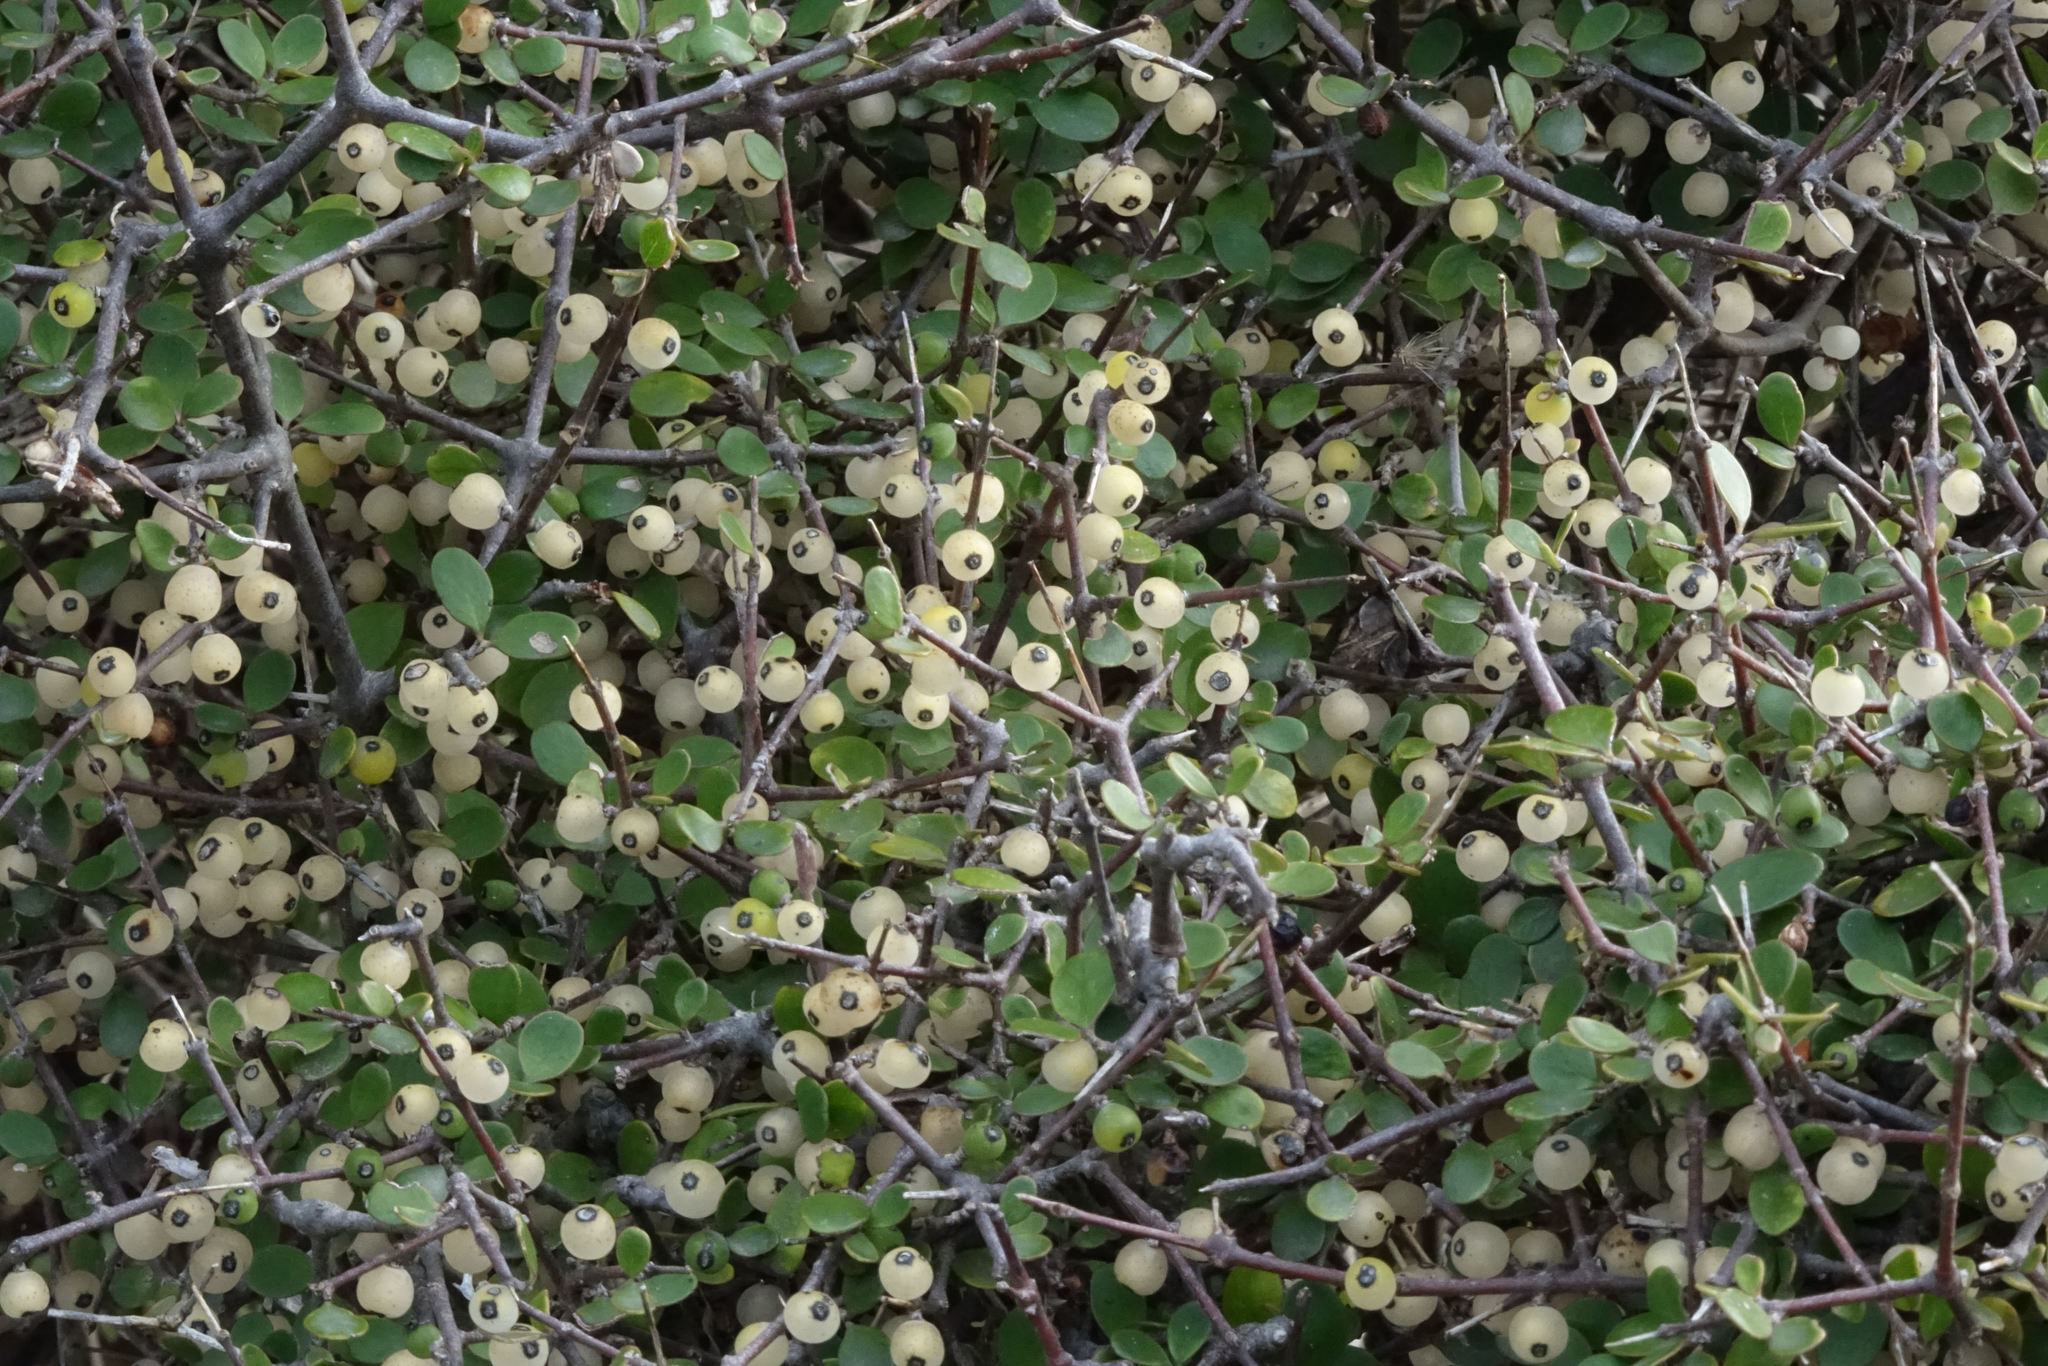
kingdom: Plantae
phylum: Tracheophyta
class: Magnoliopsida
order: Gentianales
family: Rubiaceae
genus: Coprosma
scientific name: Coprosma crassifolia
